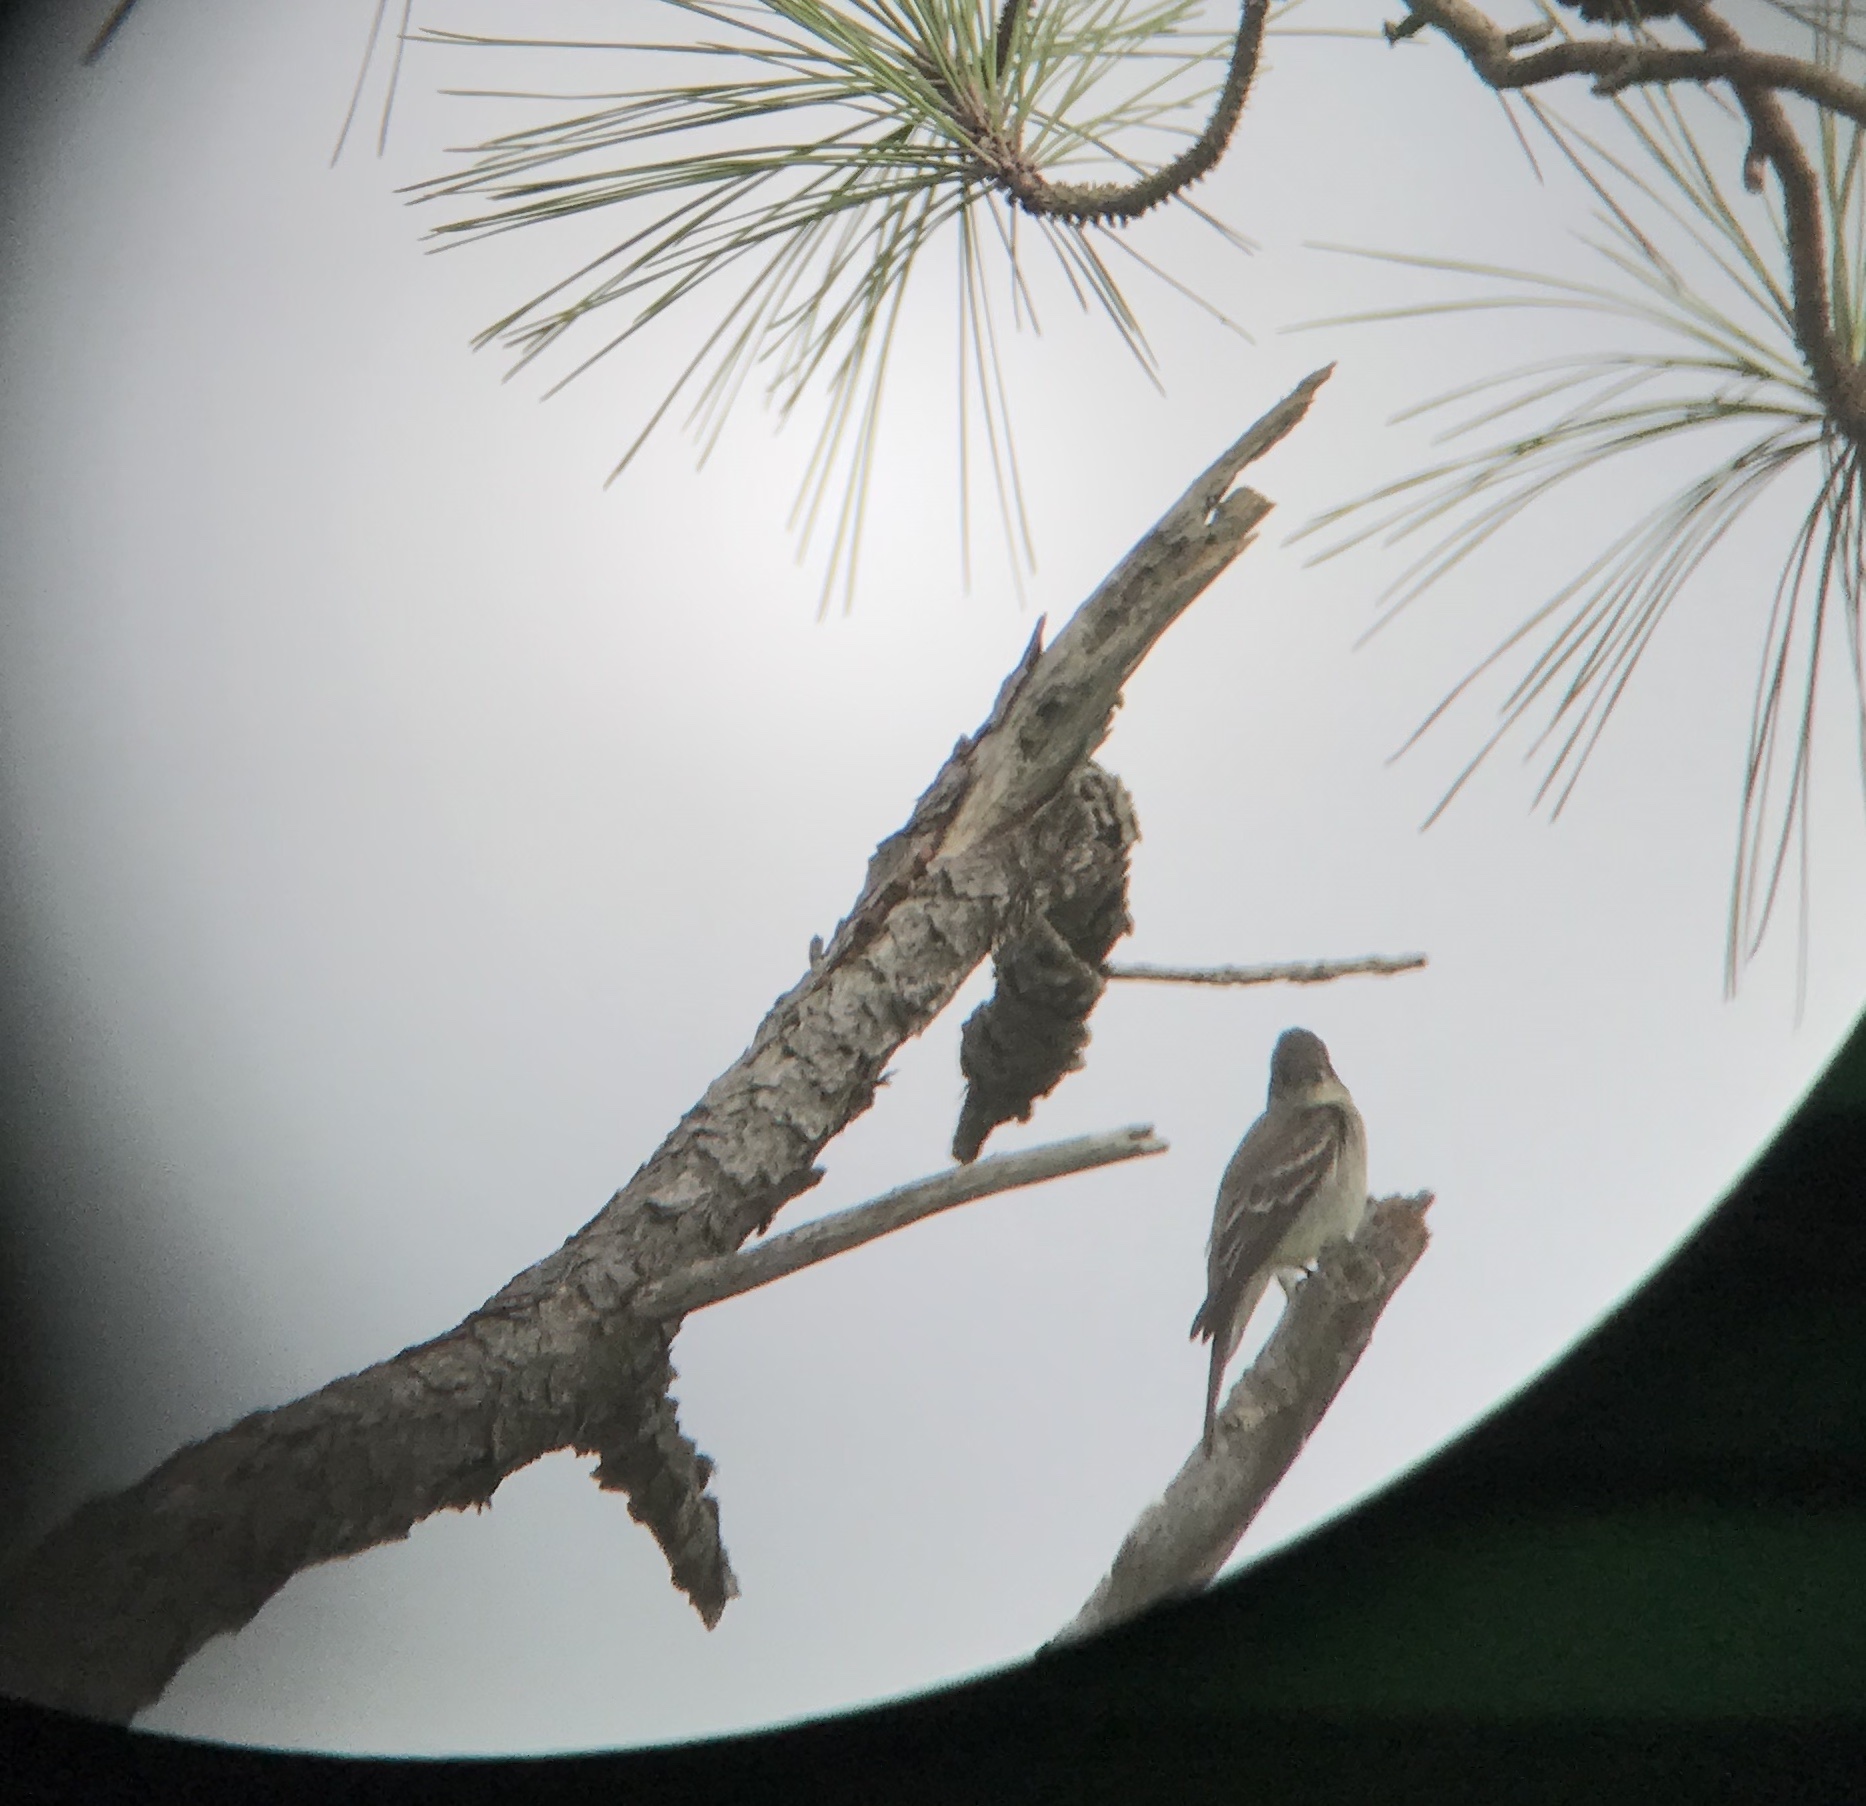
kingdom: Animalia
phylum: Chordata
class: Aves
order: Passeriformes
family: Tyrannidae
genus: Contopus
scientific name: Contopus virens
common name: Eastern wood-pewee
